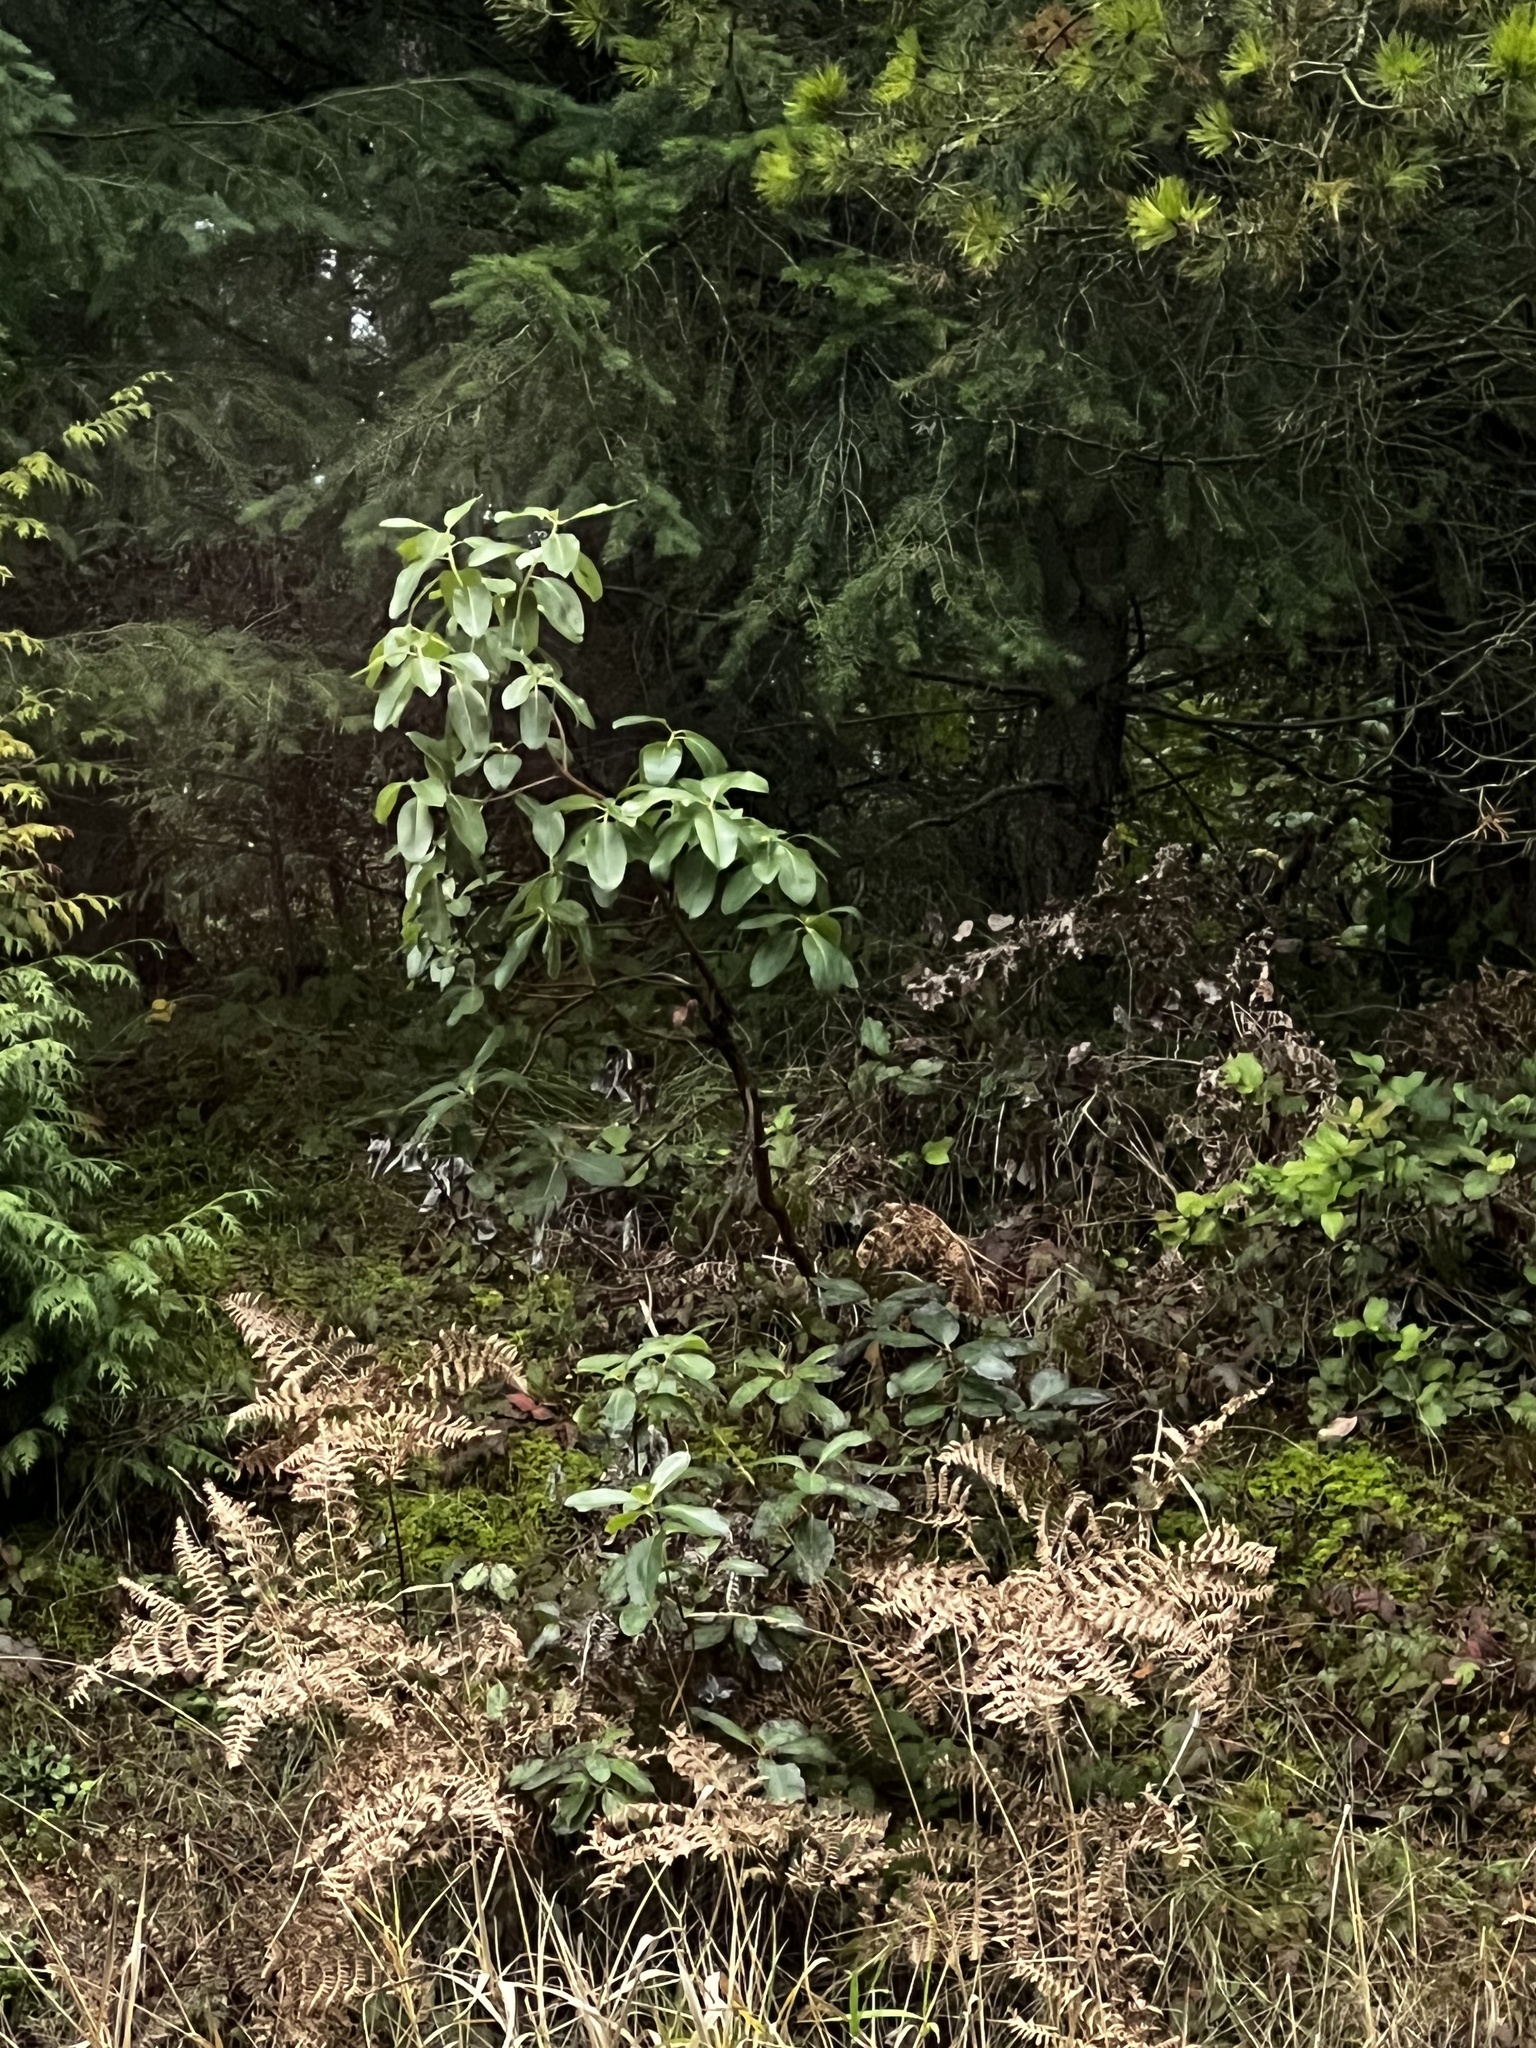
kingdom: Plantae
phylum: Tracheophyta
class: Magnoliopsida
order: Ericales
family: Ericaceae
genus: Arbutus
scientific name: Arbutus menziesii
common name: Pacific madrone
